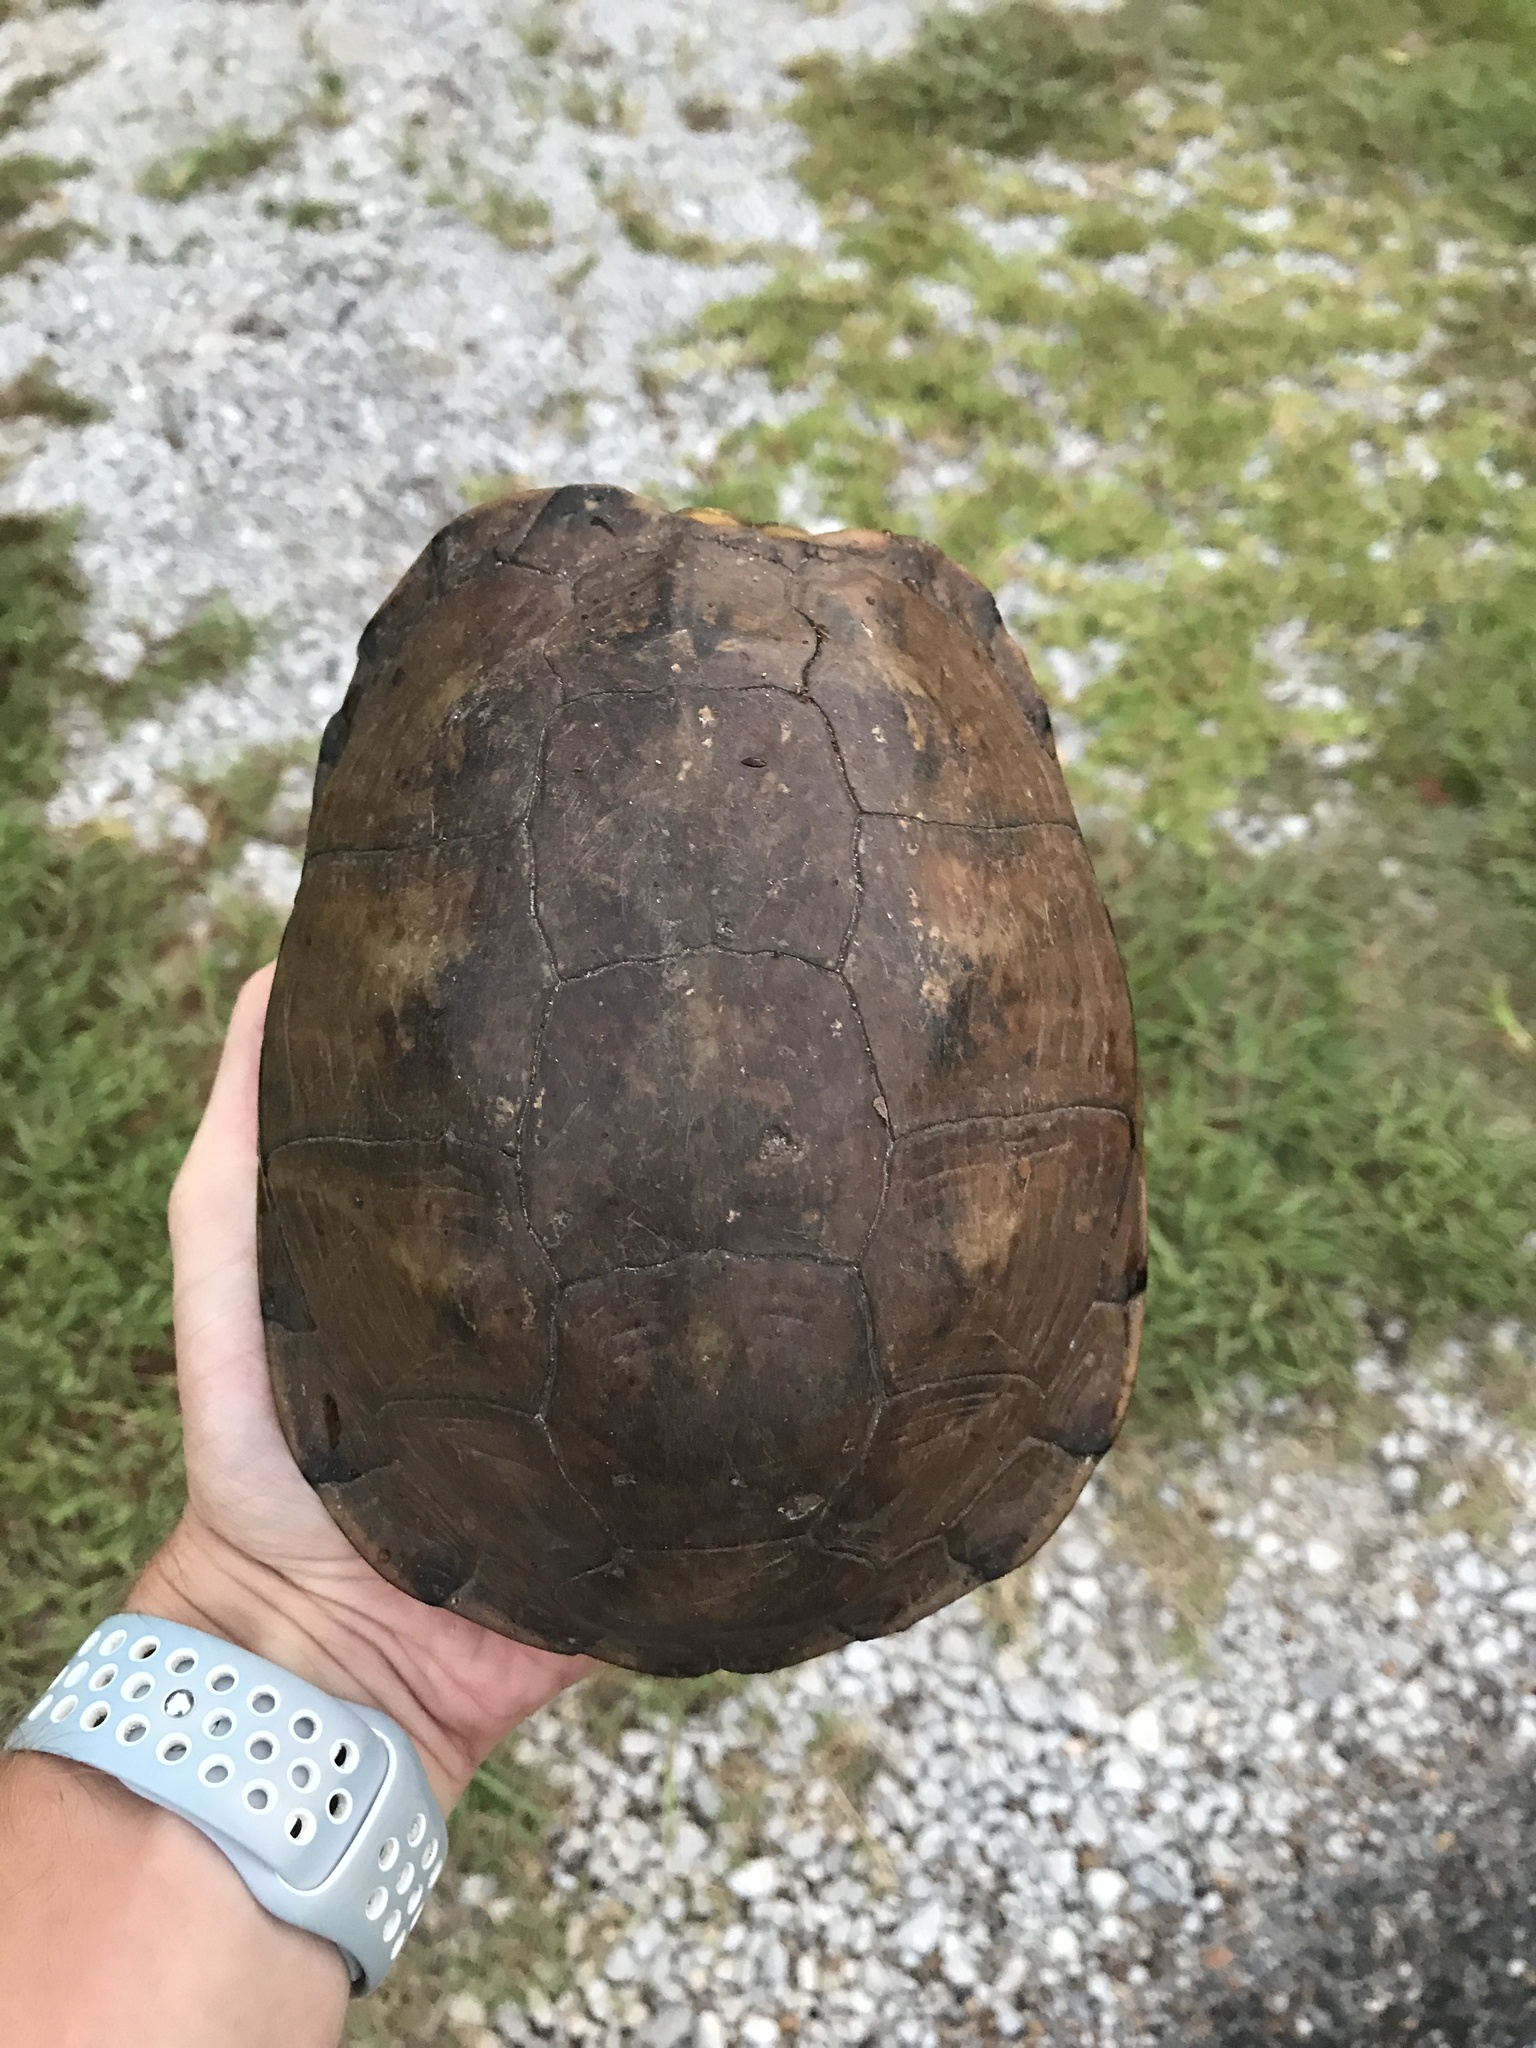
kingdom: Animalia
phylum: Chordata
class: Testudines
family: Emydidae
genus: Terrapene
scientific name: Terrapene carolina
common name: Common box turtle
